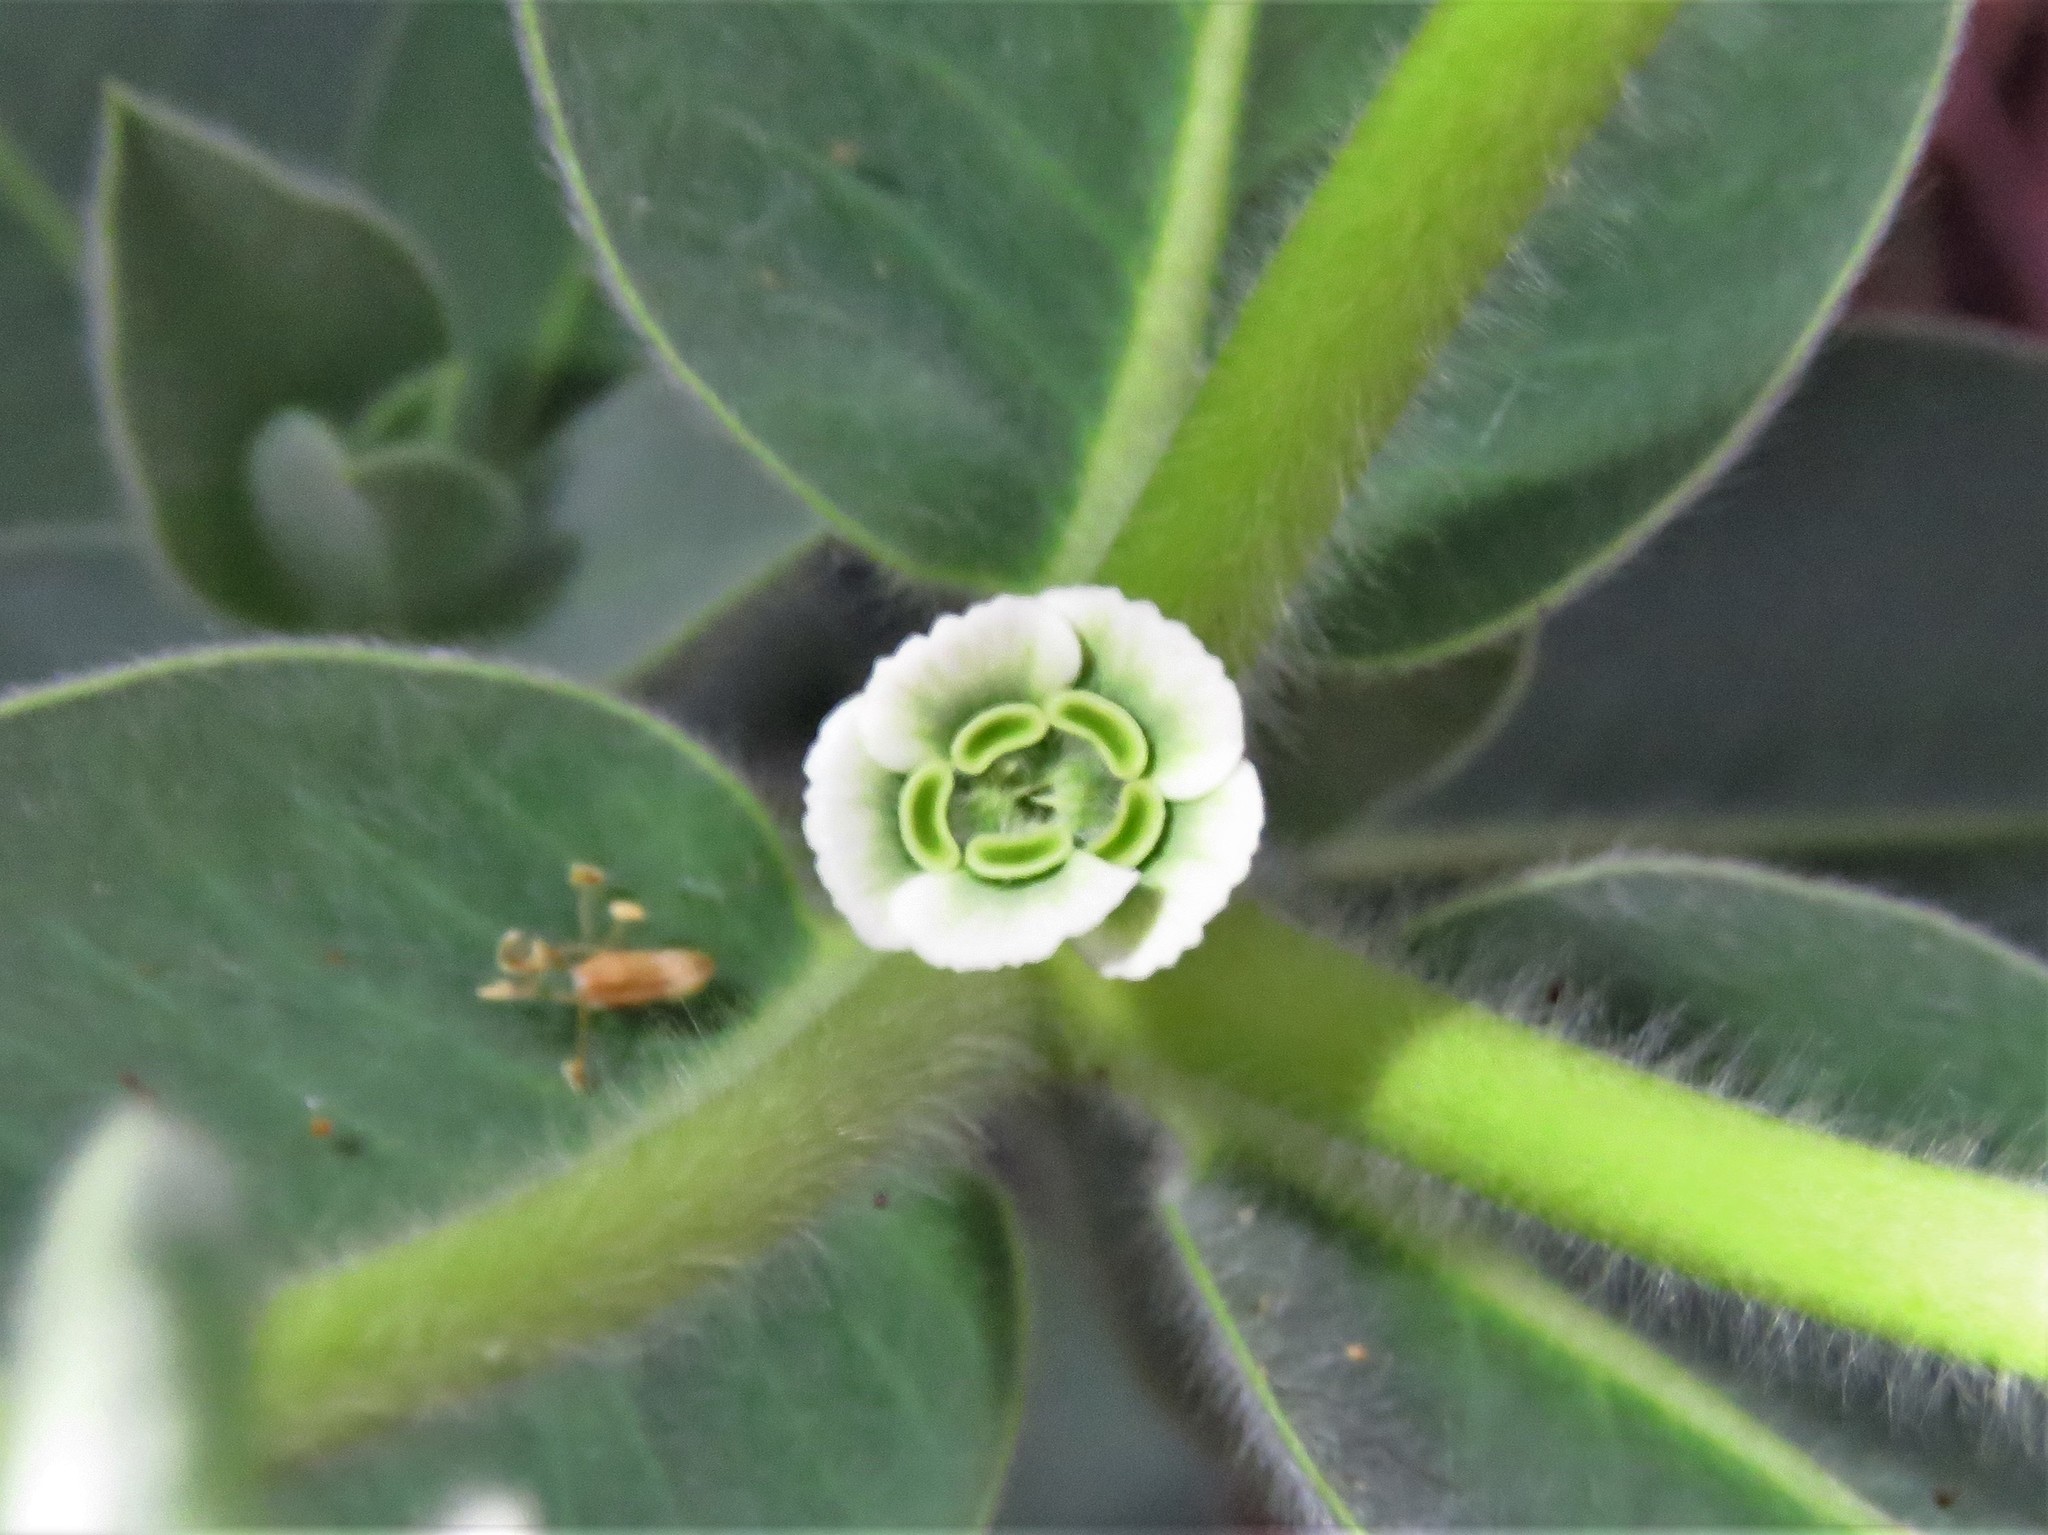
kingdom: Plantae
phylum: Tracheophyta
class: Magnoliopsida
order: Malpighiales
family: Euphorbiaceae
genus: Euphorbia
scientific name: Euphorbia bicolor
